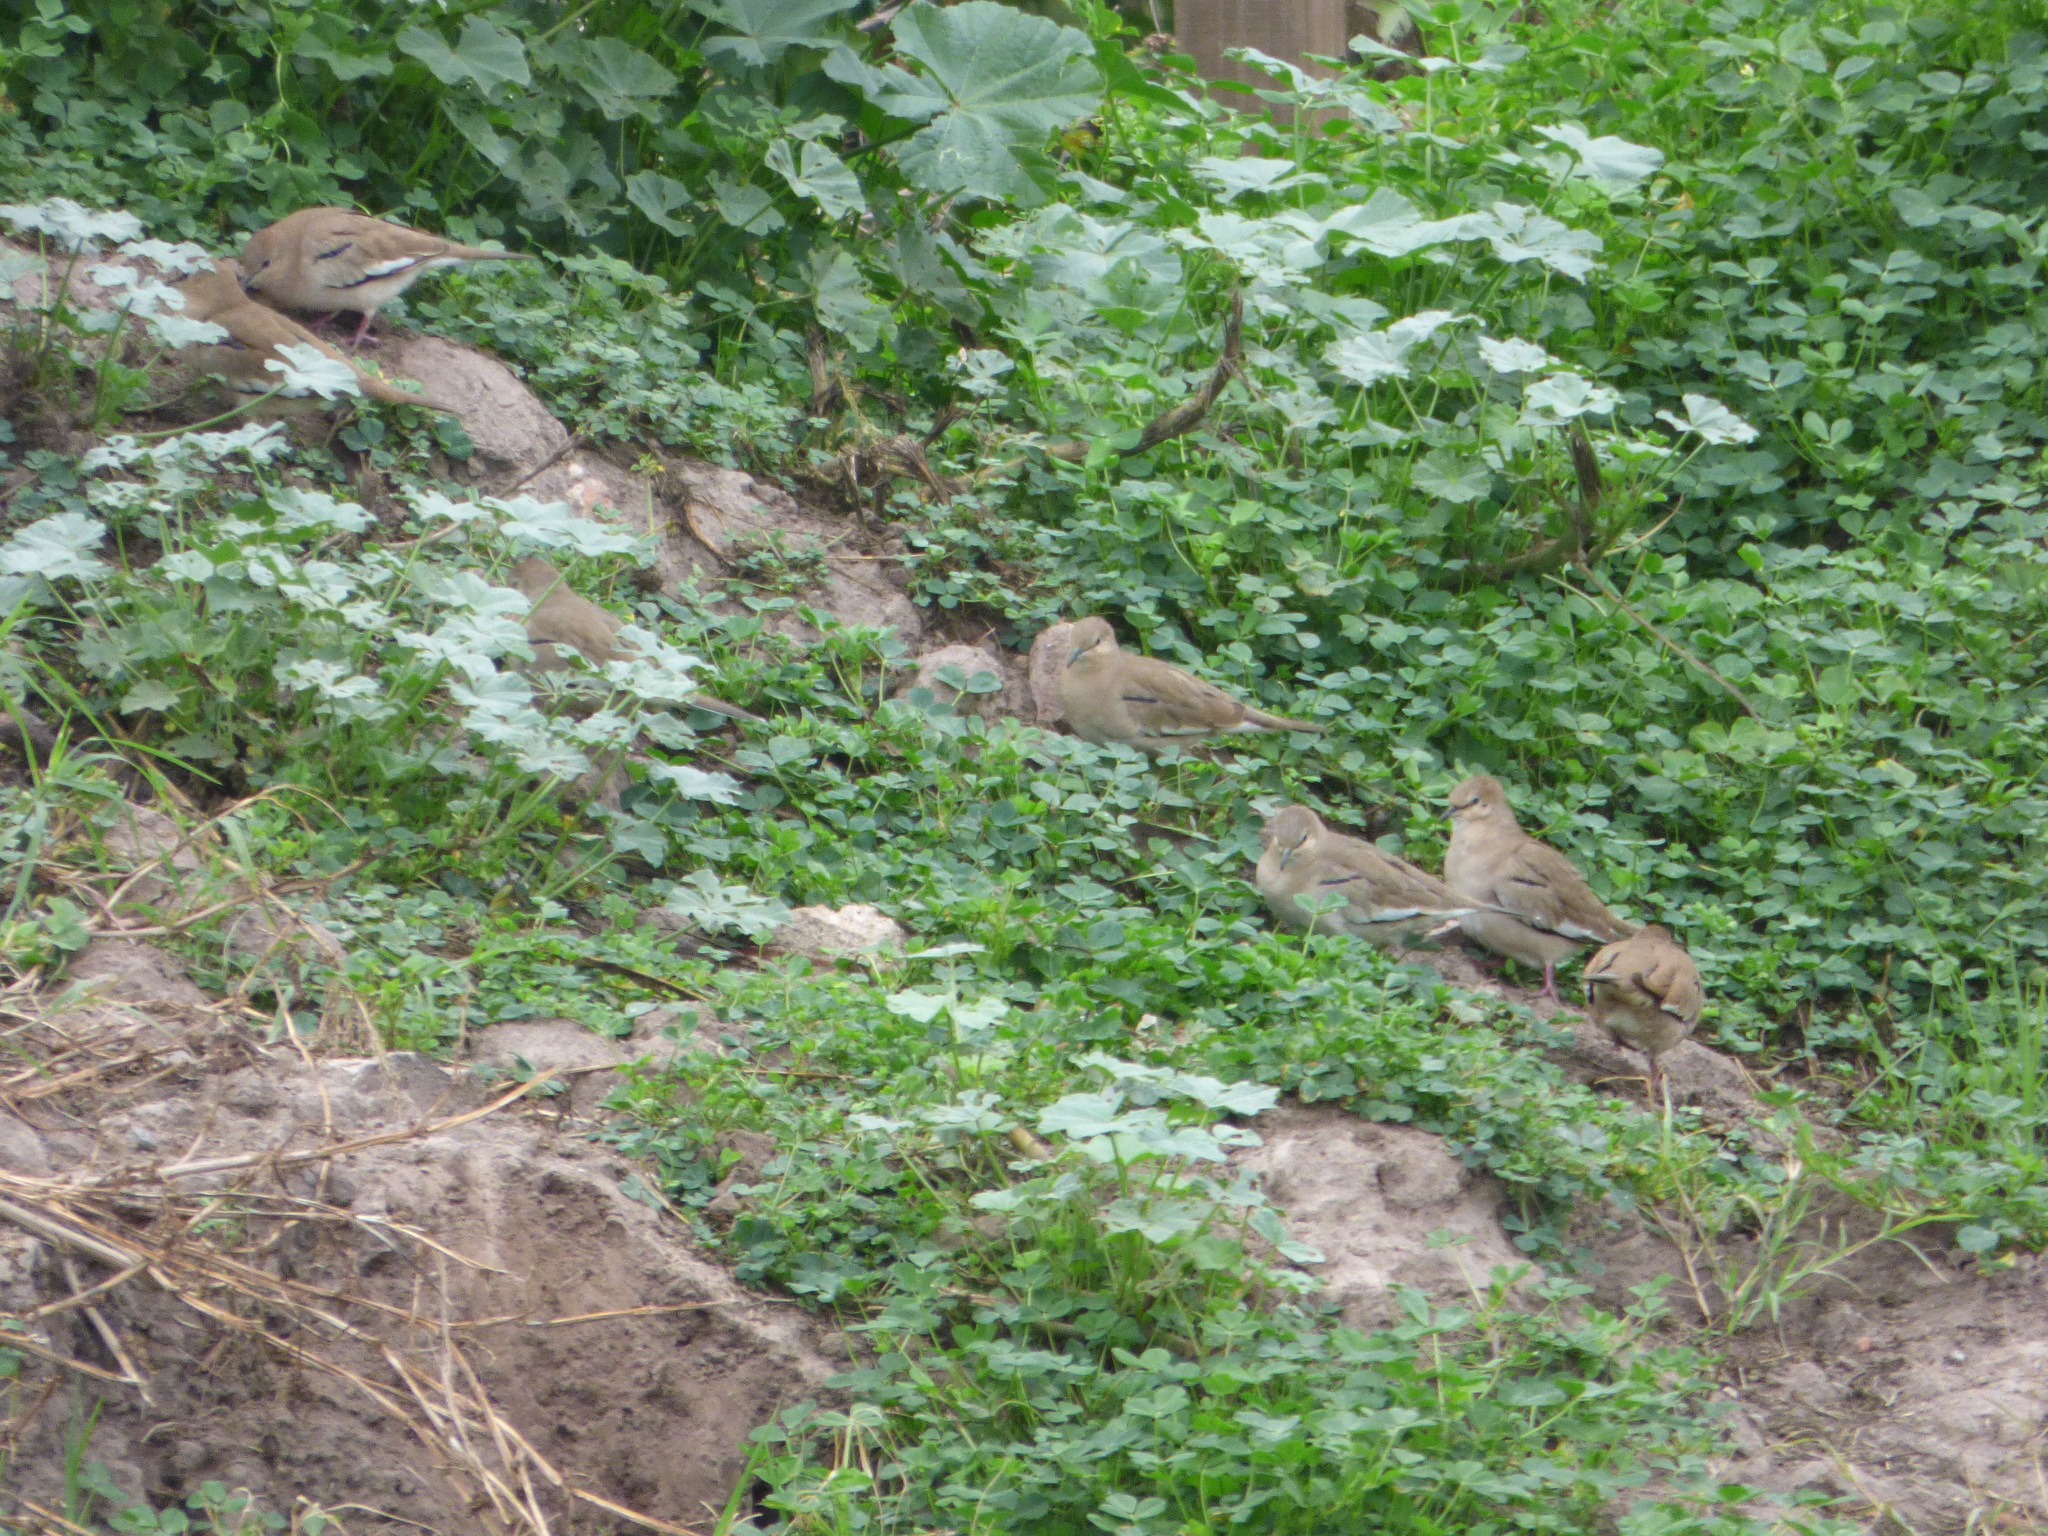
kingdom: Animalia
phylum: Chordata
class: Aves
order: Columbiformes
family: Columbidae
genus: Columbina
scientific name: Columbina picui
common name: Picui ground dove
